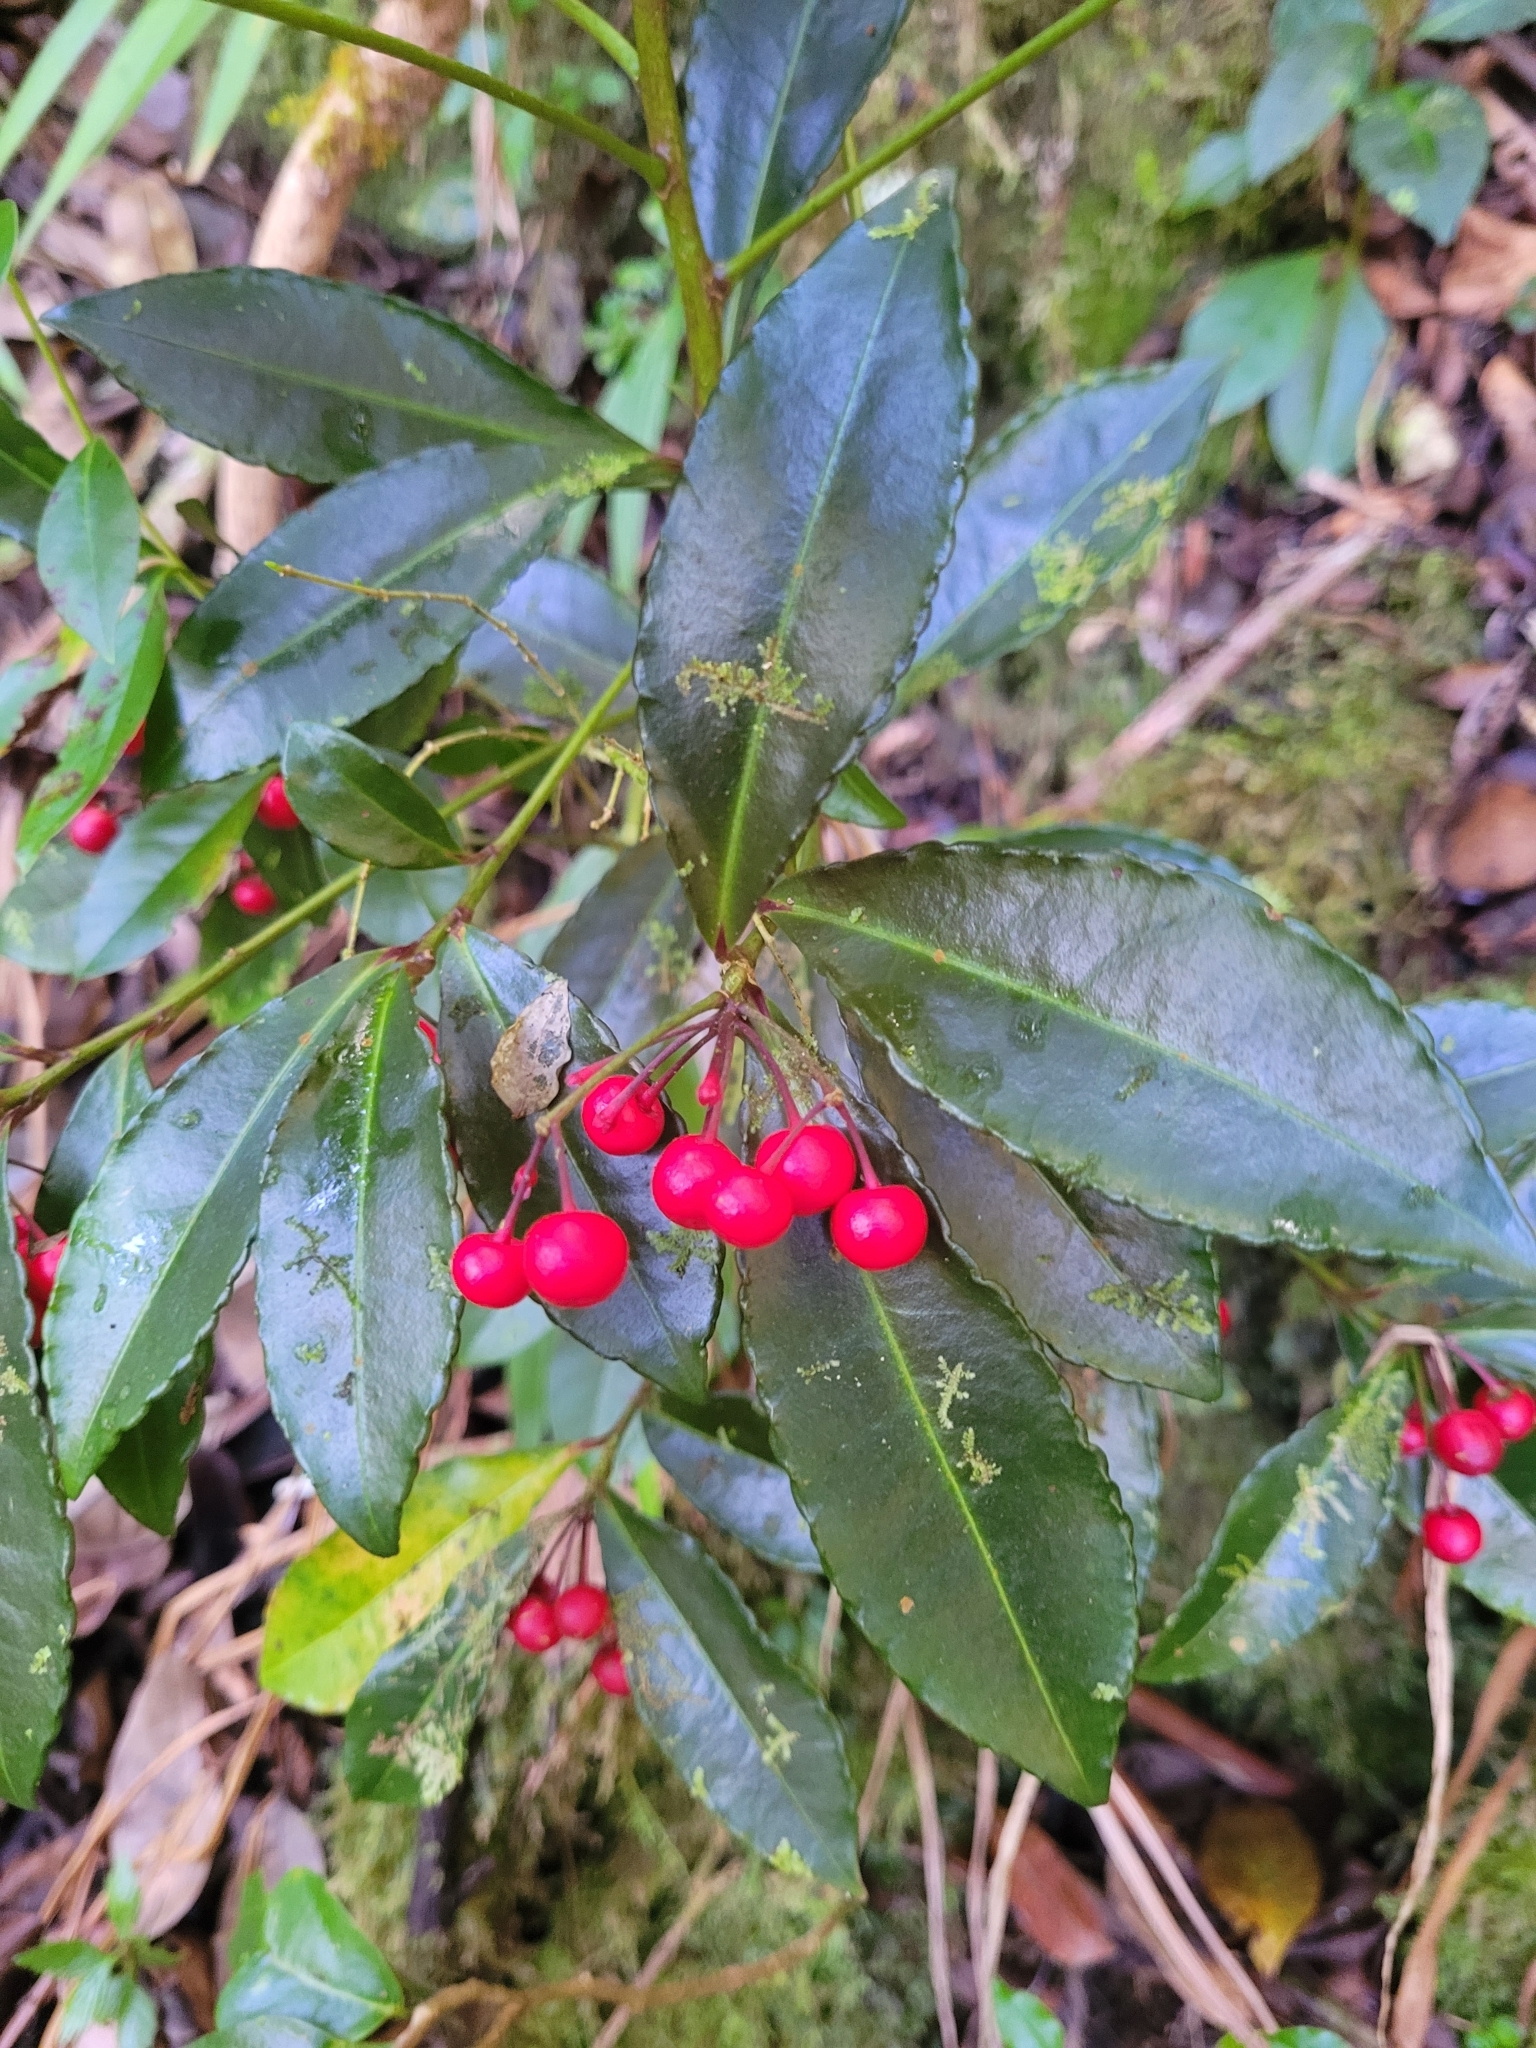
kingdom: Plantae
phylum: Tracheophyta
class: Magnoliopsida
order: Ericales
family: Primulaceae
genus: Ardisia
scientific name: Ardisia crenata
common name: Hen's eyes
